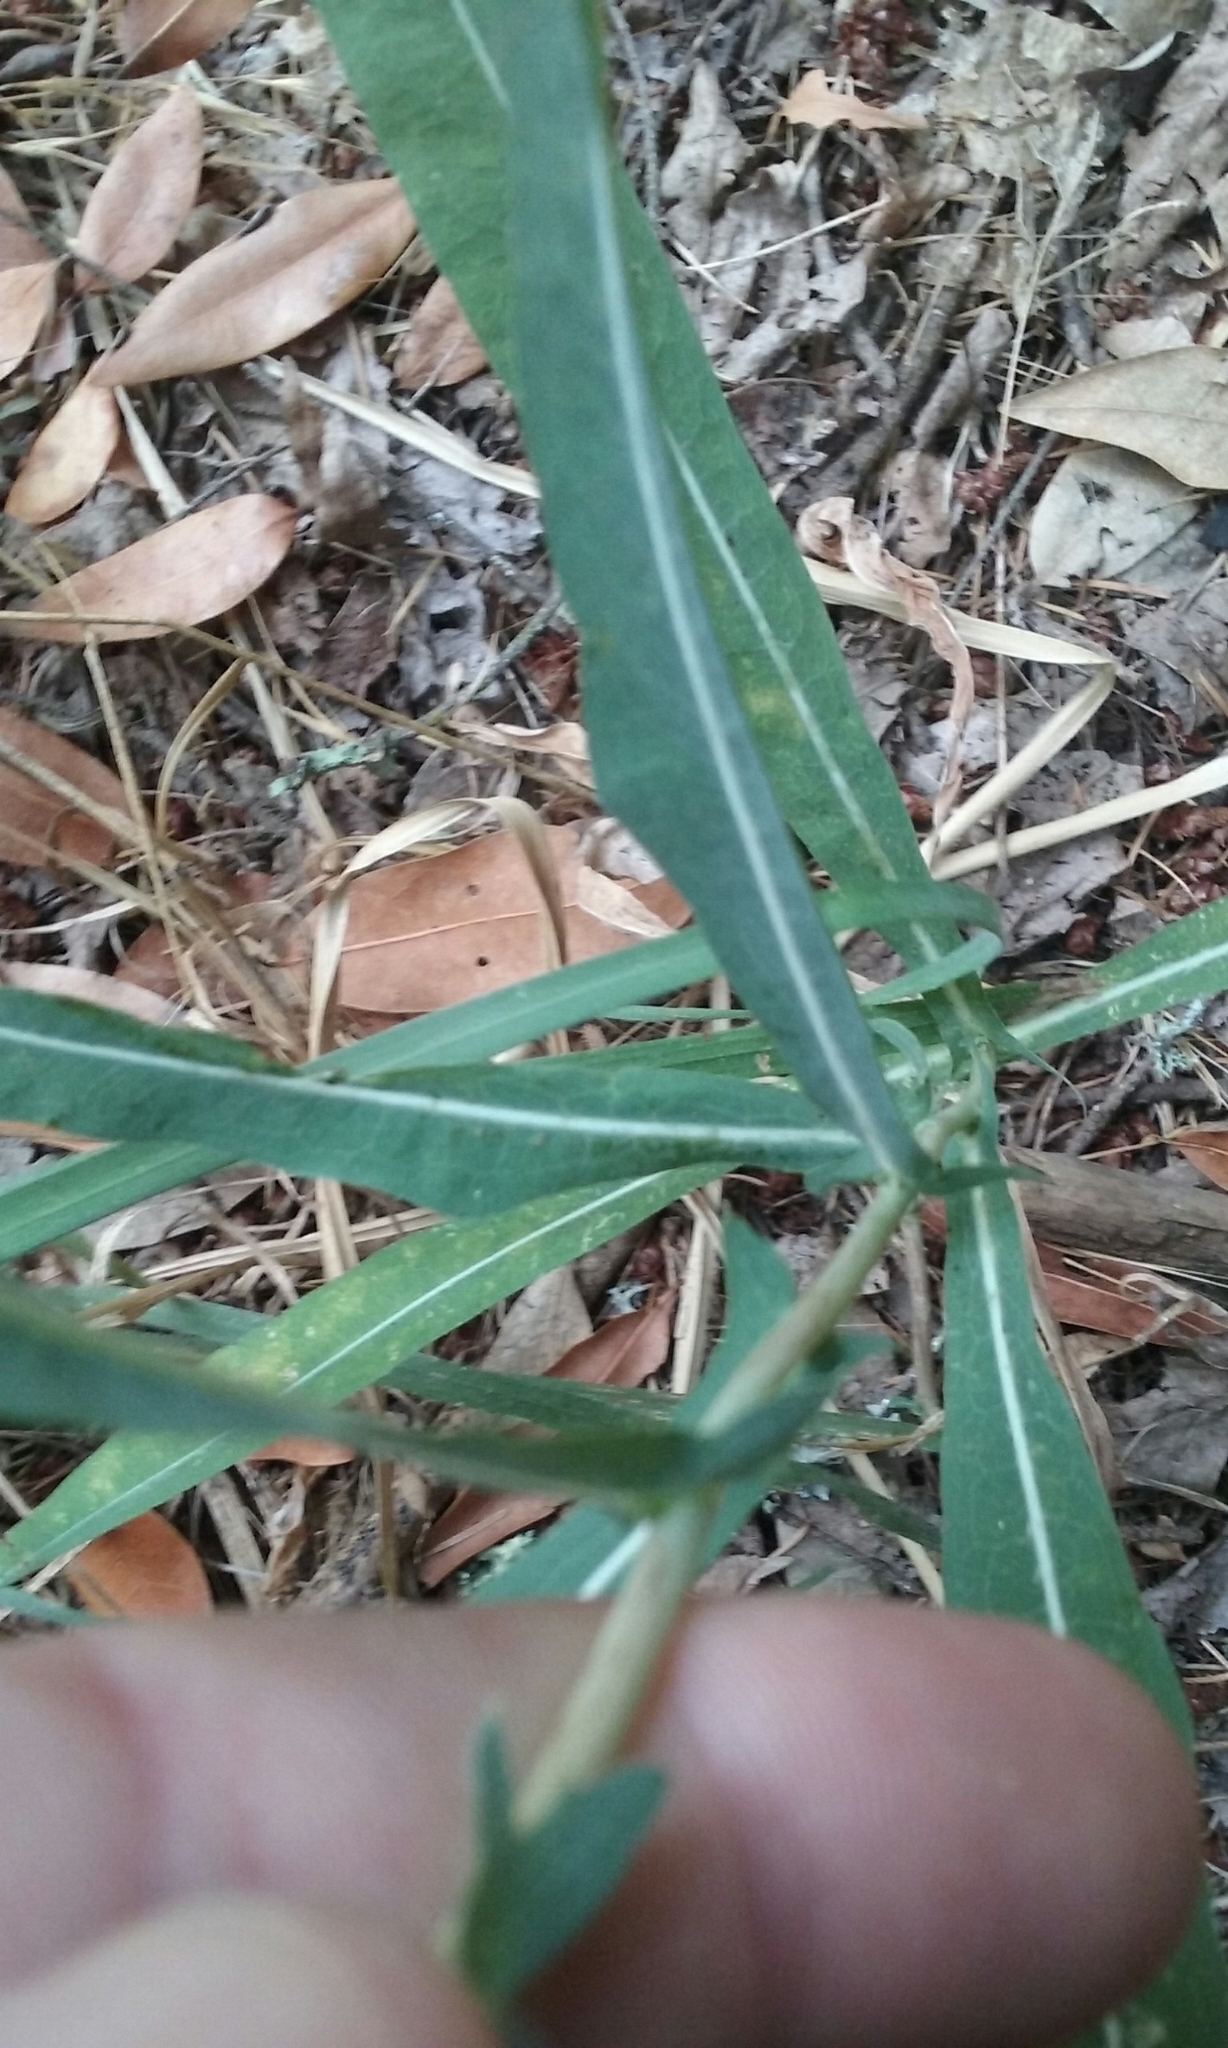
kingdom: Plantae
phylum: Tracheophyta
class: Magnoliopsida
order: Asterales
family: Asteraceae
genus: Lactuca
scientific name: Lactuca saligna
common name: Wild lettuce
